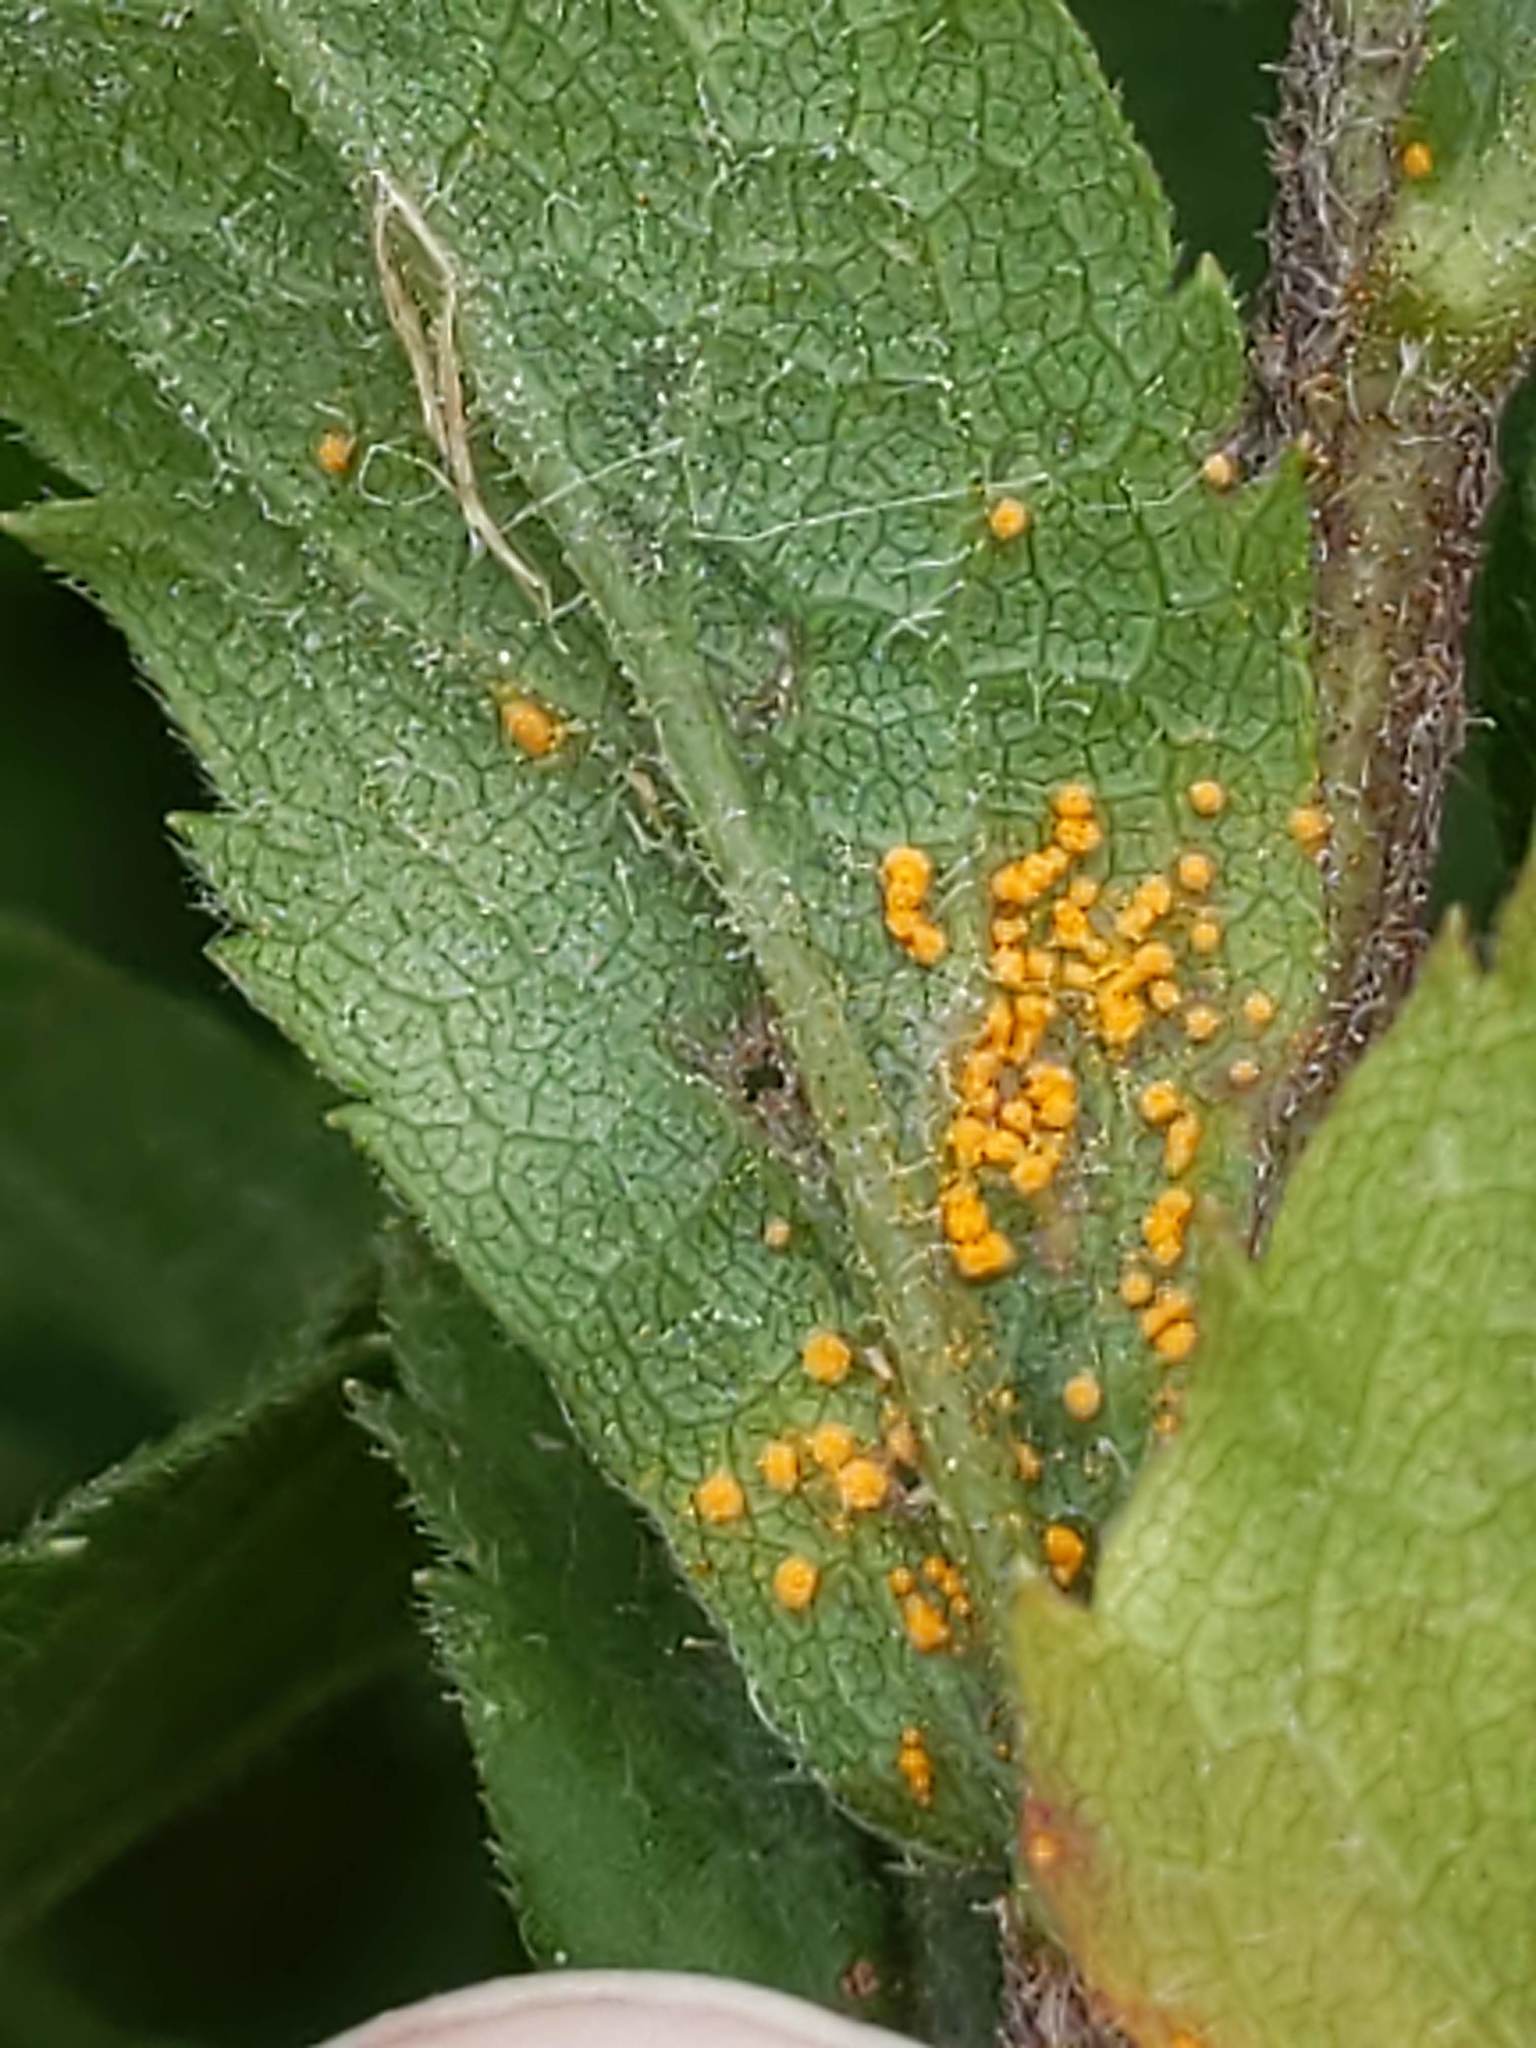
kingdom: Fungi
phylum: Basidiomycota
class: Pucciniomycetes
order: Pucciniales
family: Coleosporiaceae
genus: Coleosporium
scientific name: Coleosporium asterum
